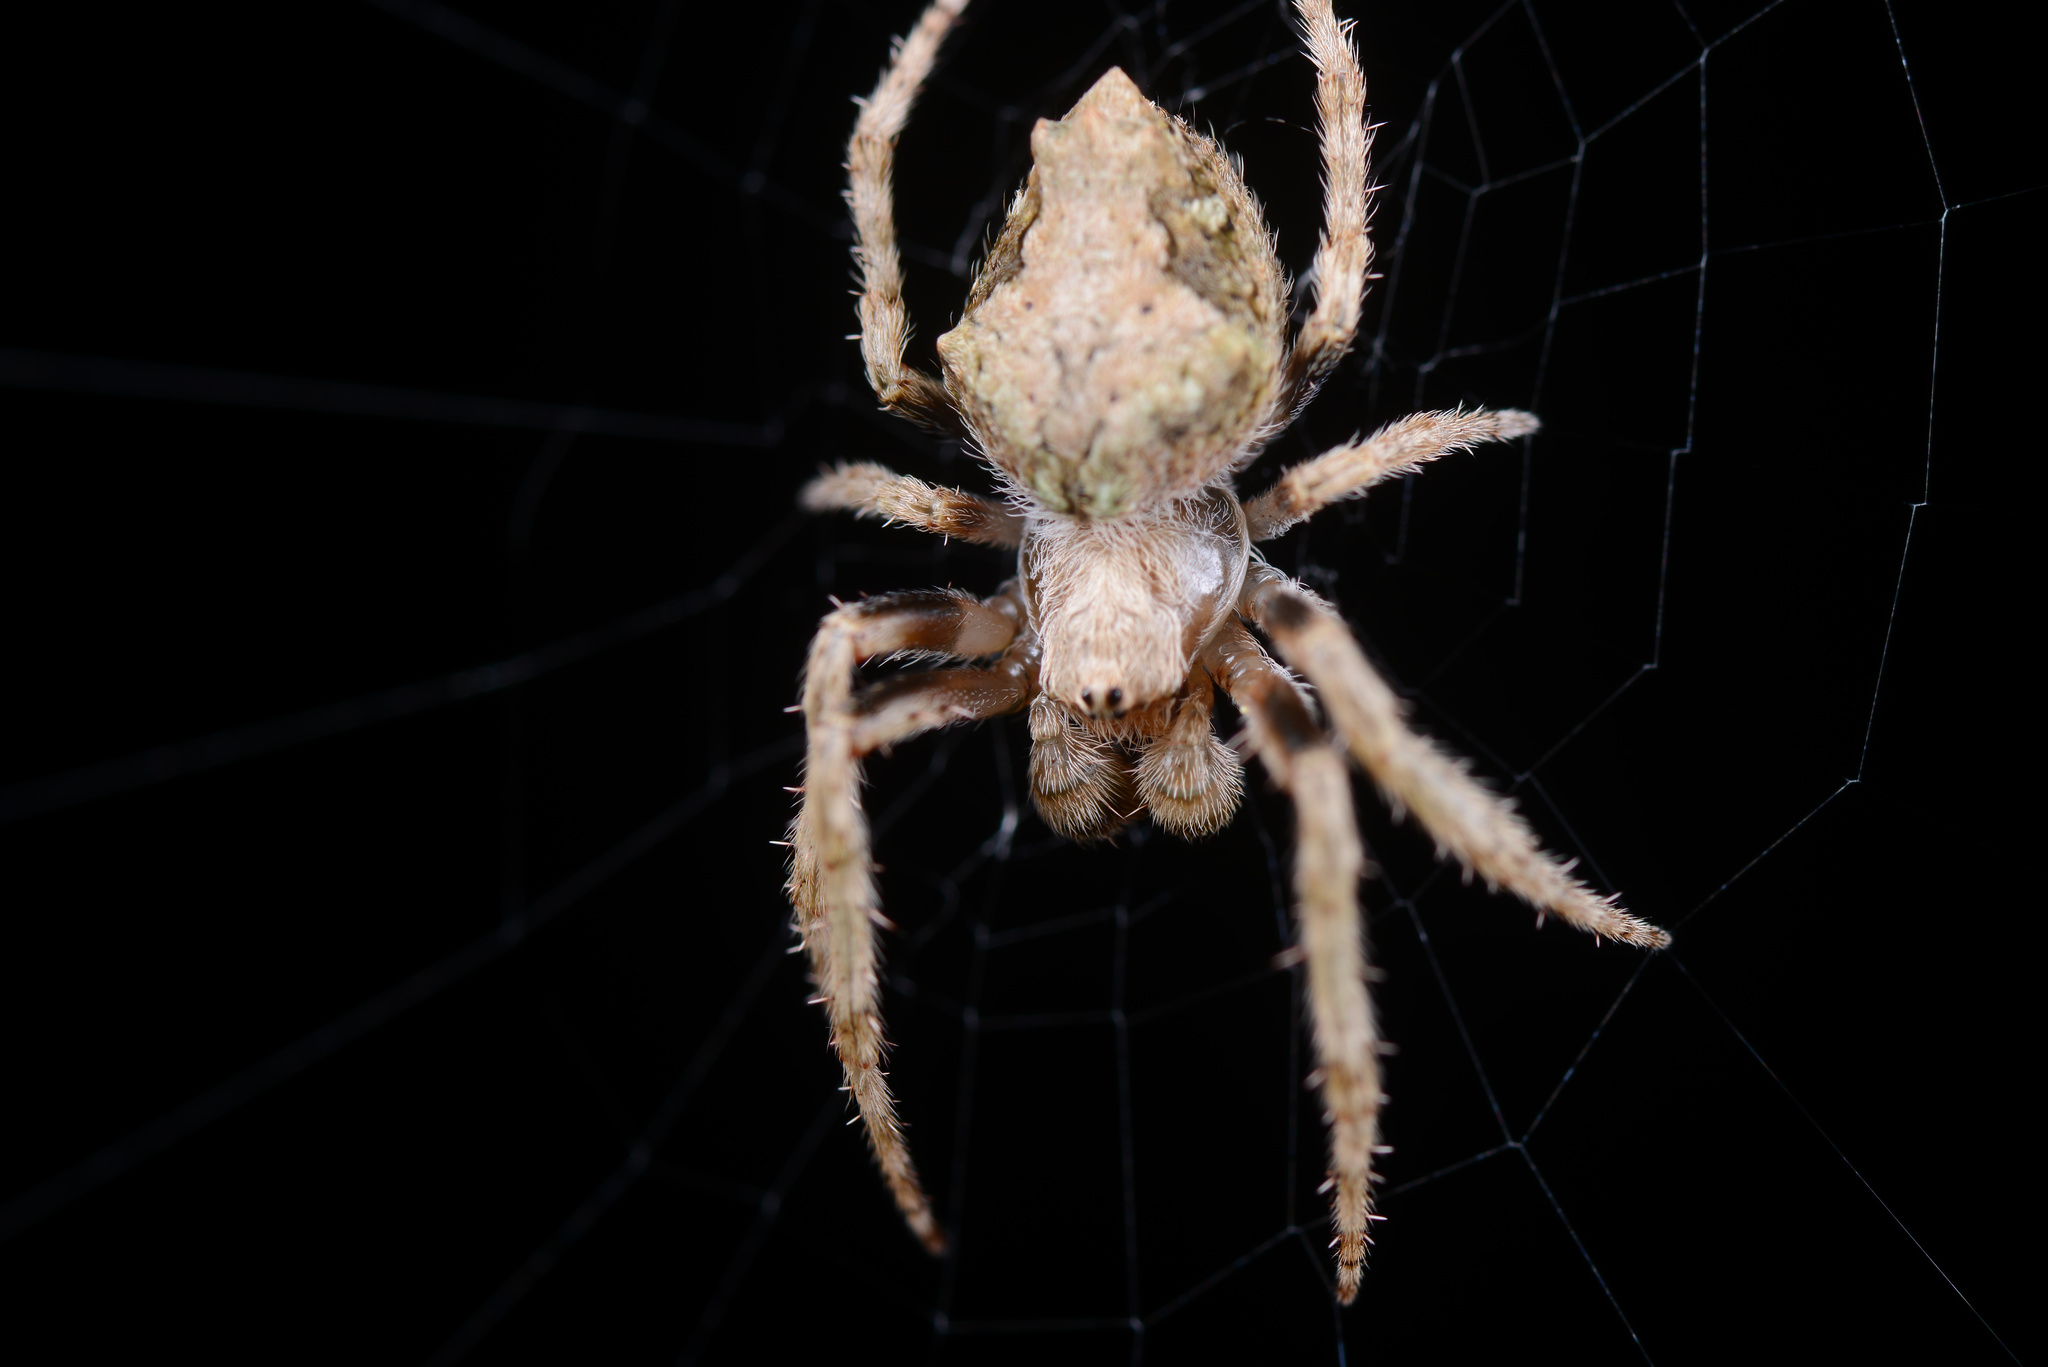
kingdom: Animalia
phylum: Arthropoda
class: Arachnida
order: Araneae
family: Araneidae
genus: Eriophora
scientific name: Eriophora pustulosa
